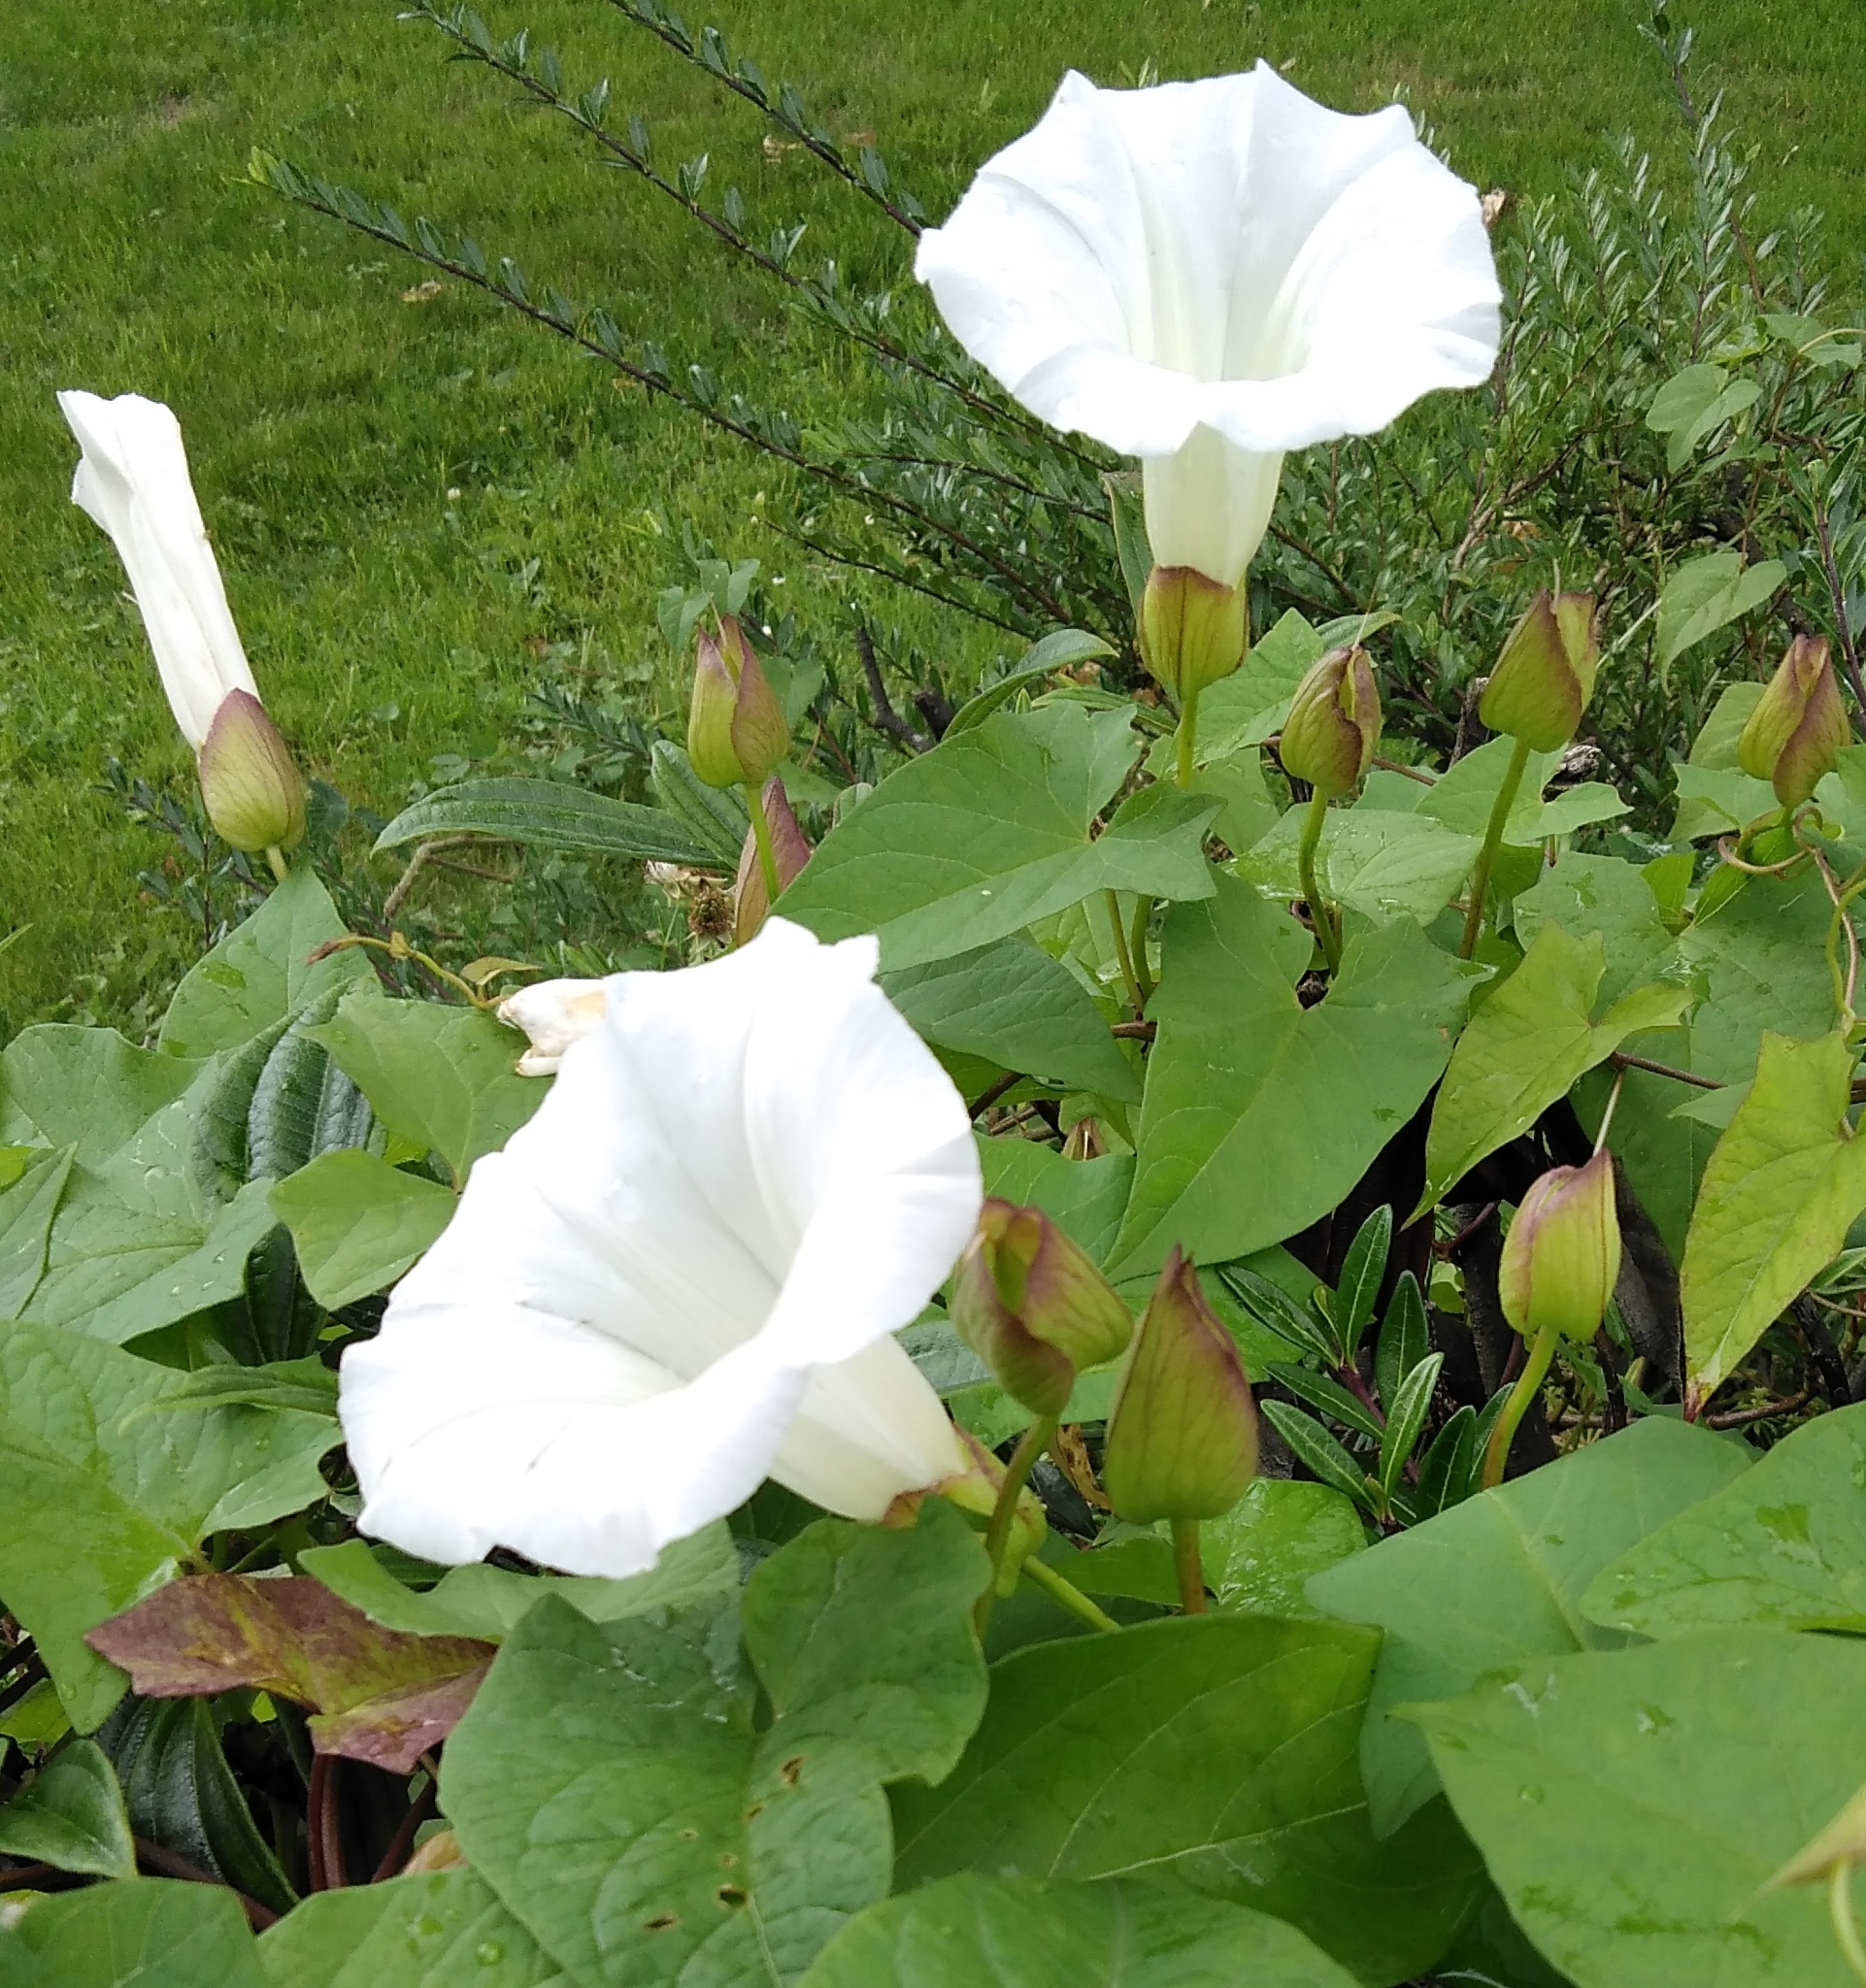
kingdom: Plantae
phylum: Tracheophyta
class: Magnoliopsida
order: Solanales
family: Convolvulaceae
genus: Calystegia
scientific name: Calystegia silvatica
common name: Large bindweed
